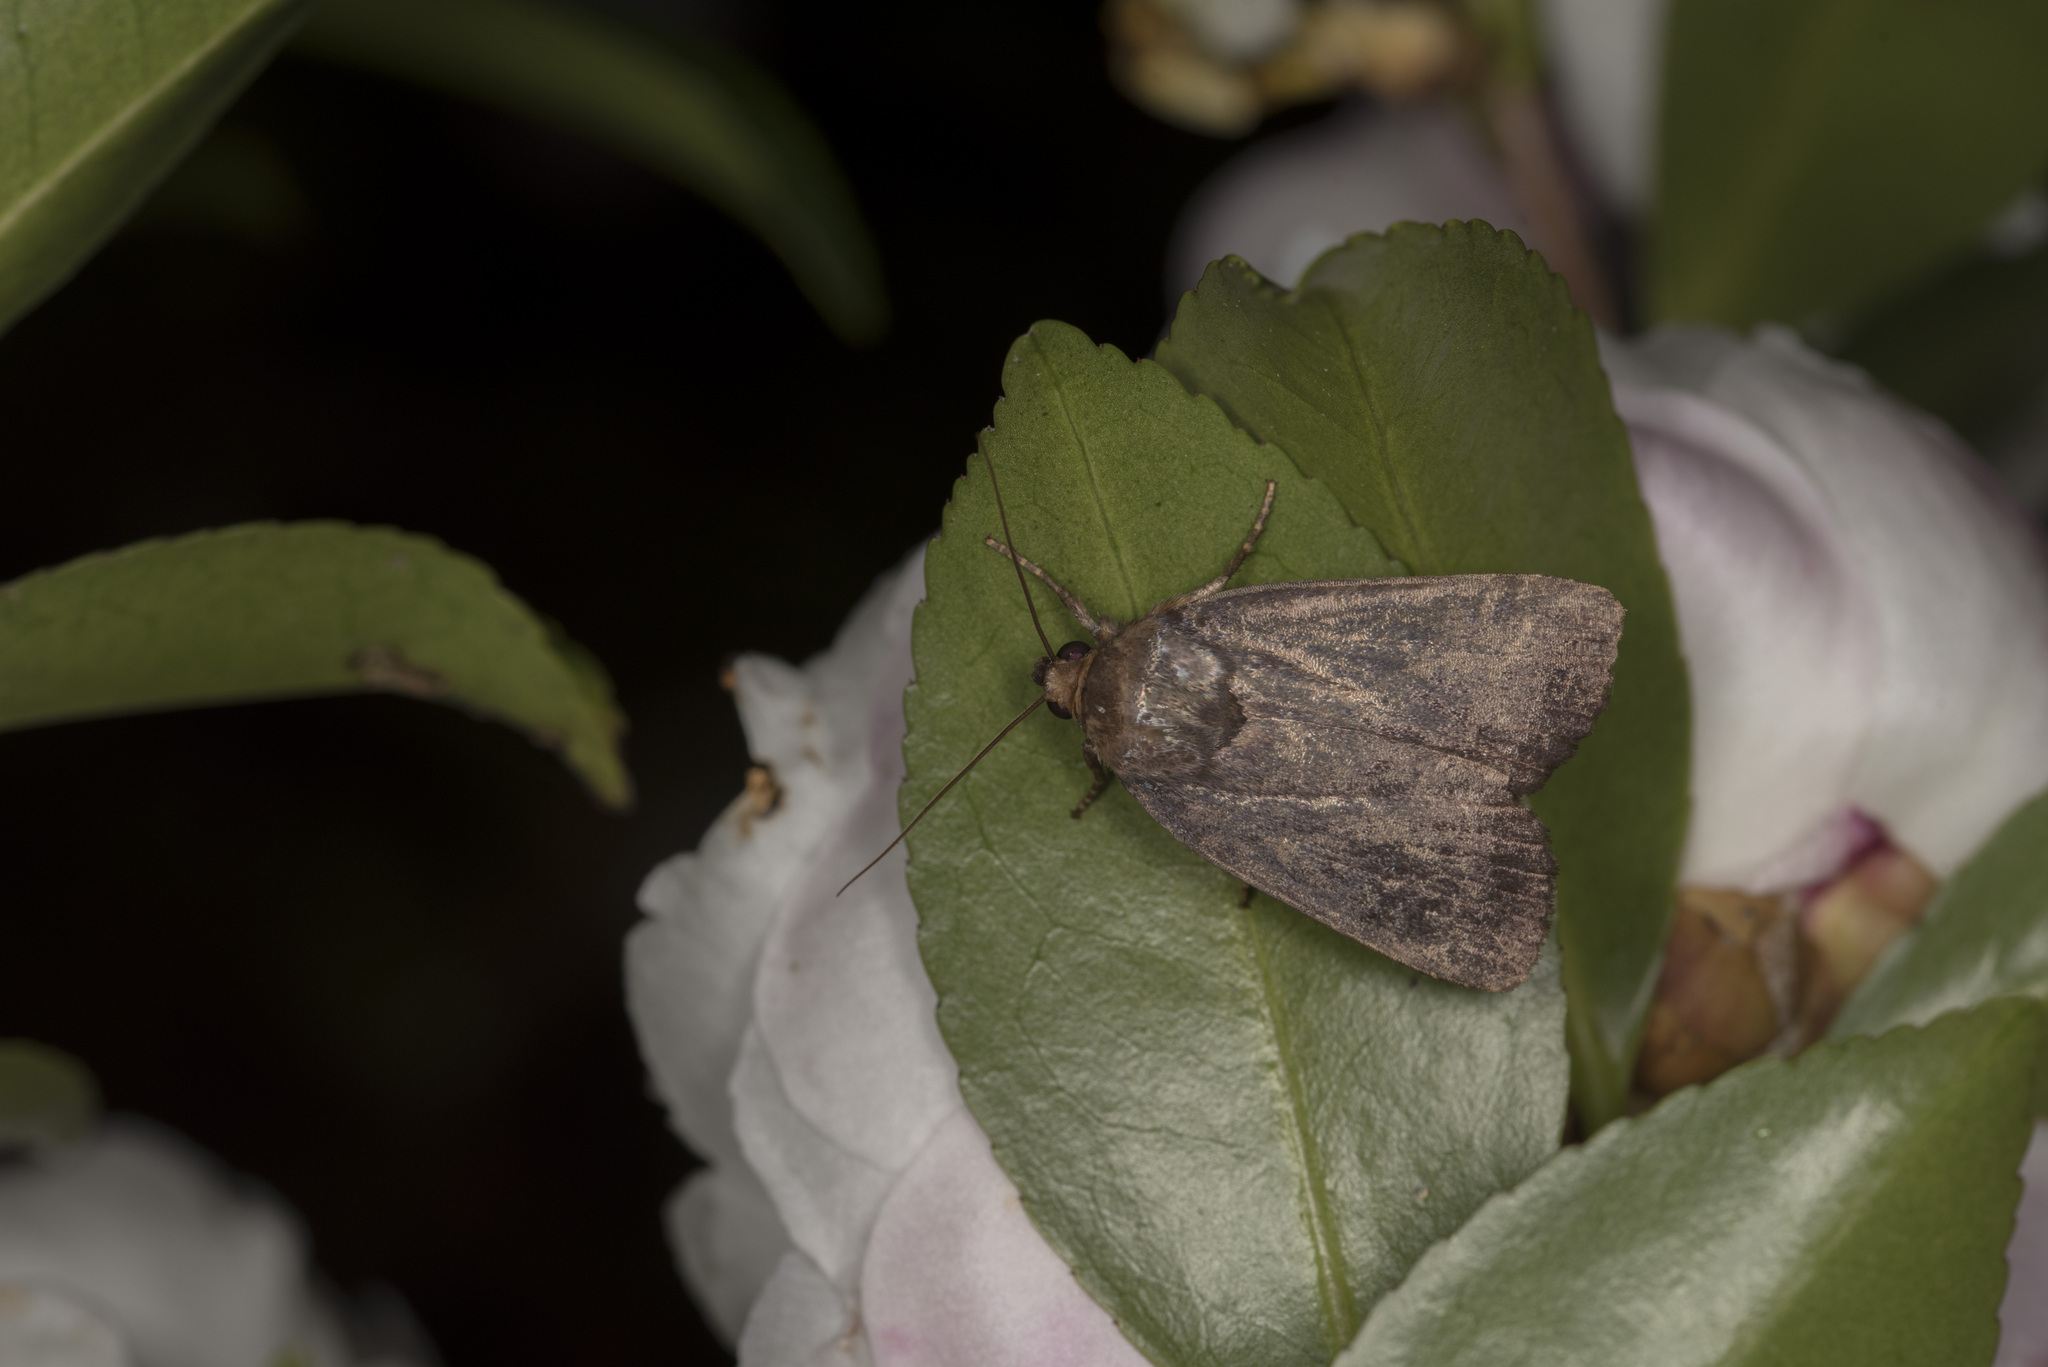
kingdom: Animalia
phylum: Arthropoda
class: Insecta
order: Lepidoptera
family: Noctuidae
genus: Amphipyra
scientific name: Amphipyra livida
